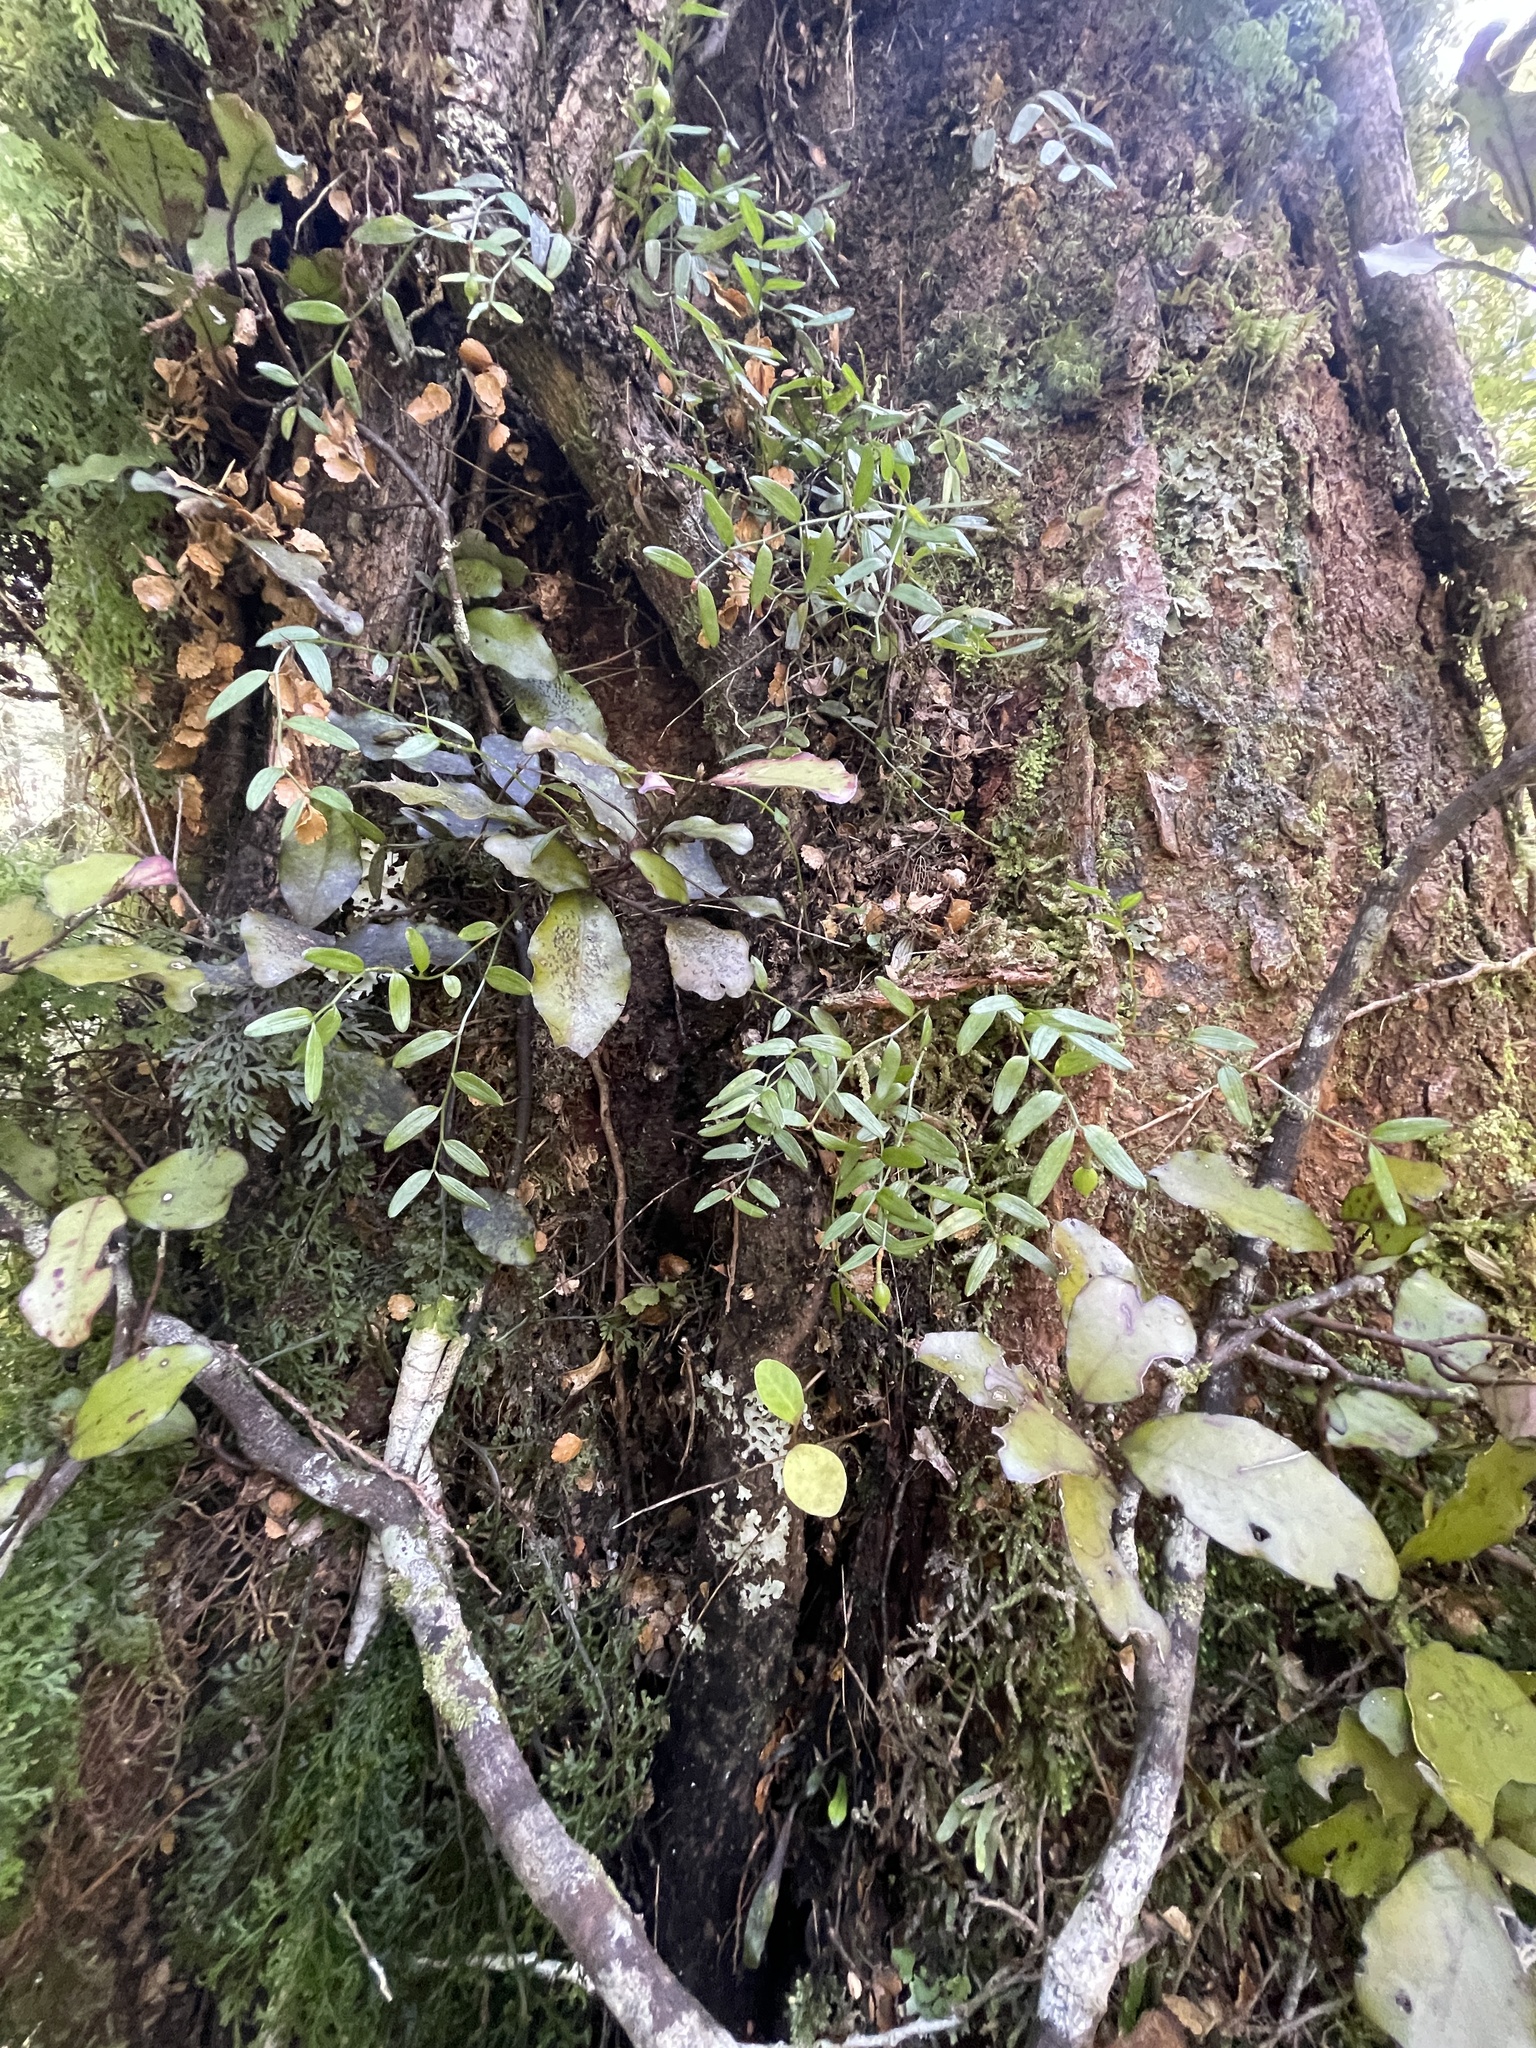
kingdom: Plantae
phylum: Tracheophyta
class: Liliopsida
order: Liliales
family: Alstroemeriaceae
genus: Luzuriaga
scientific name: Luzuriaga parviflora
